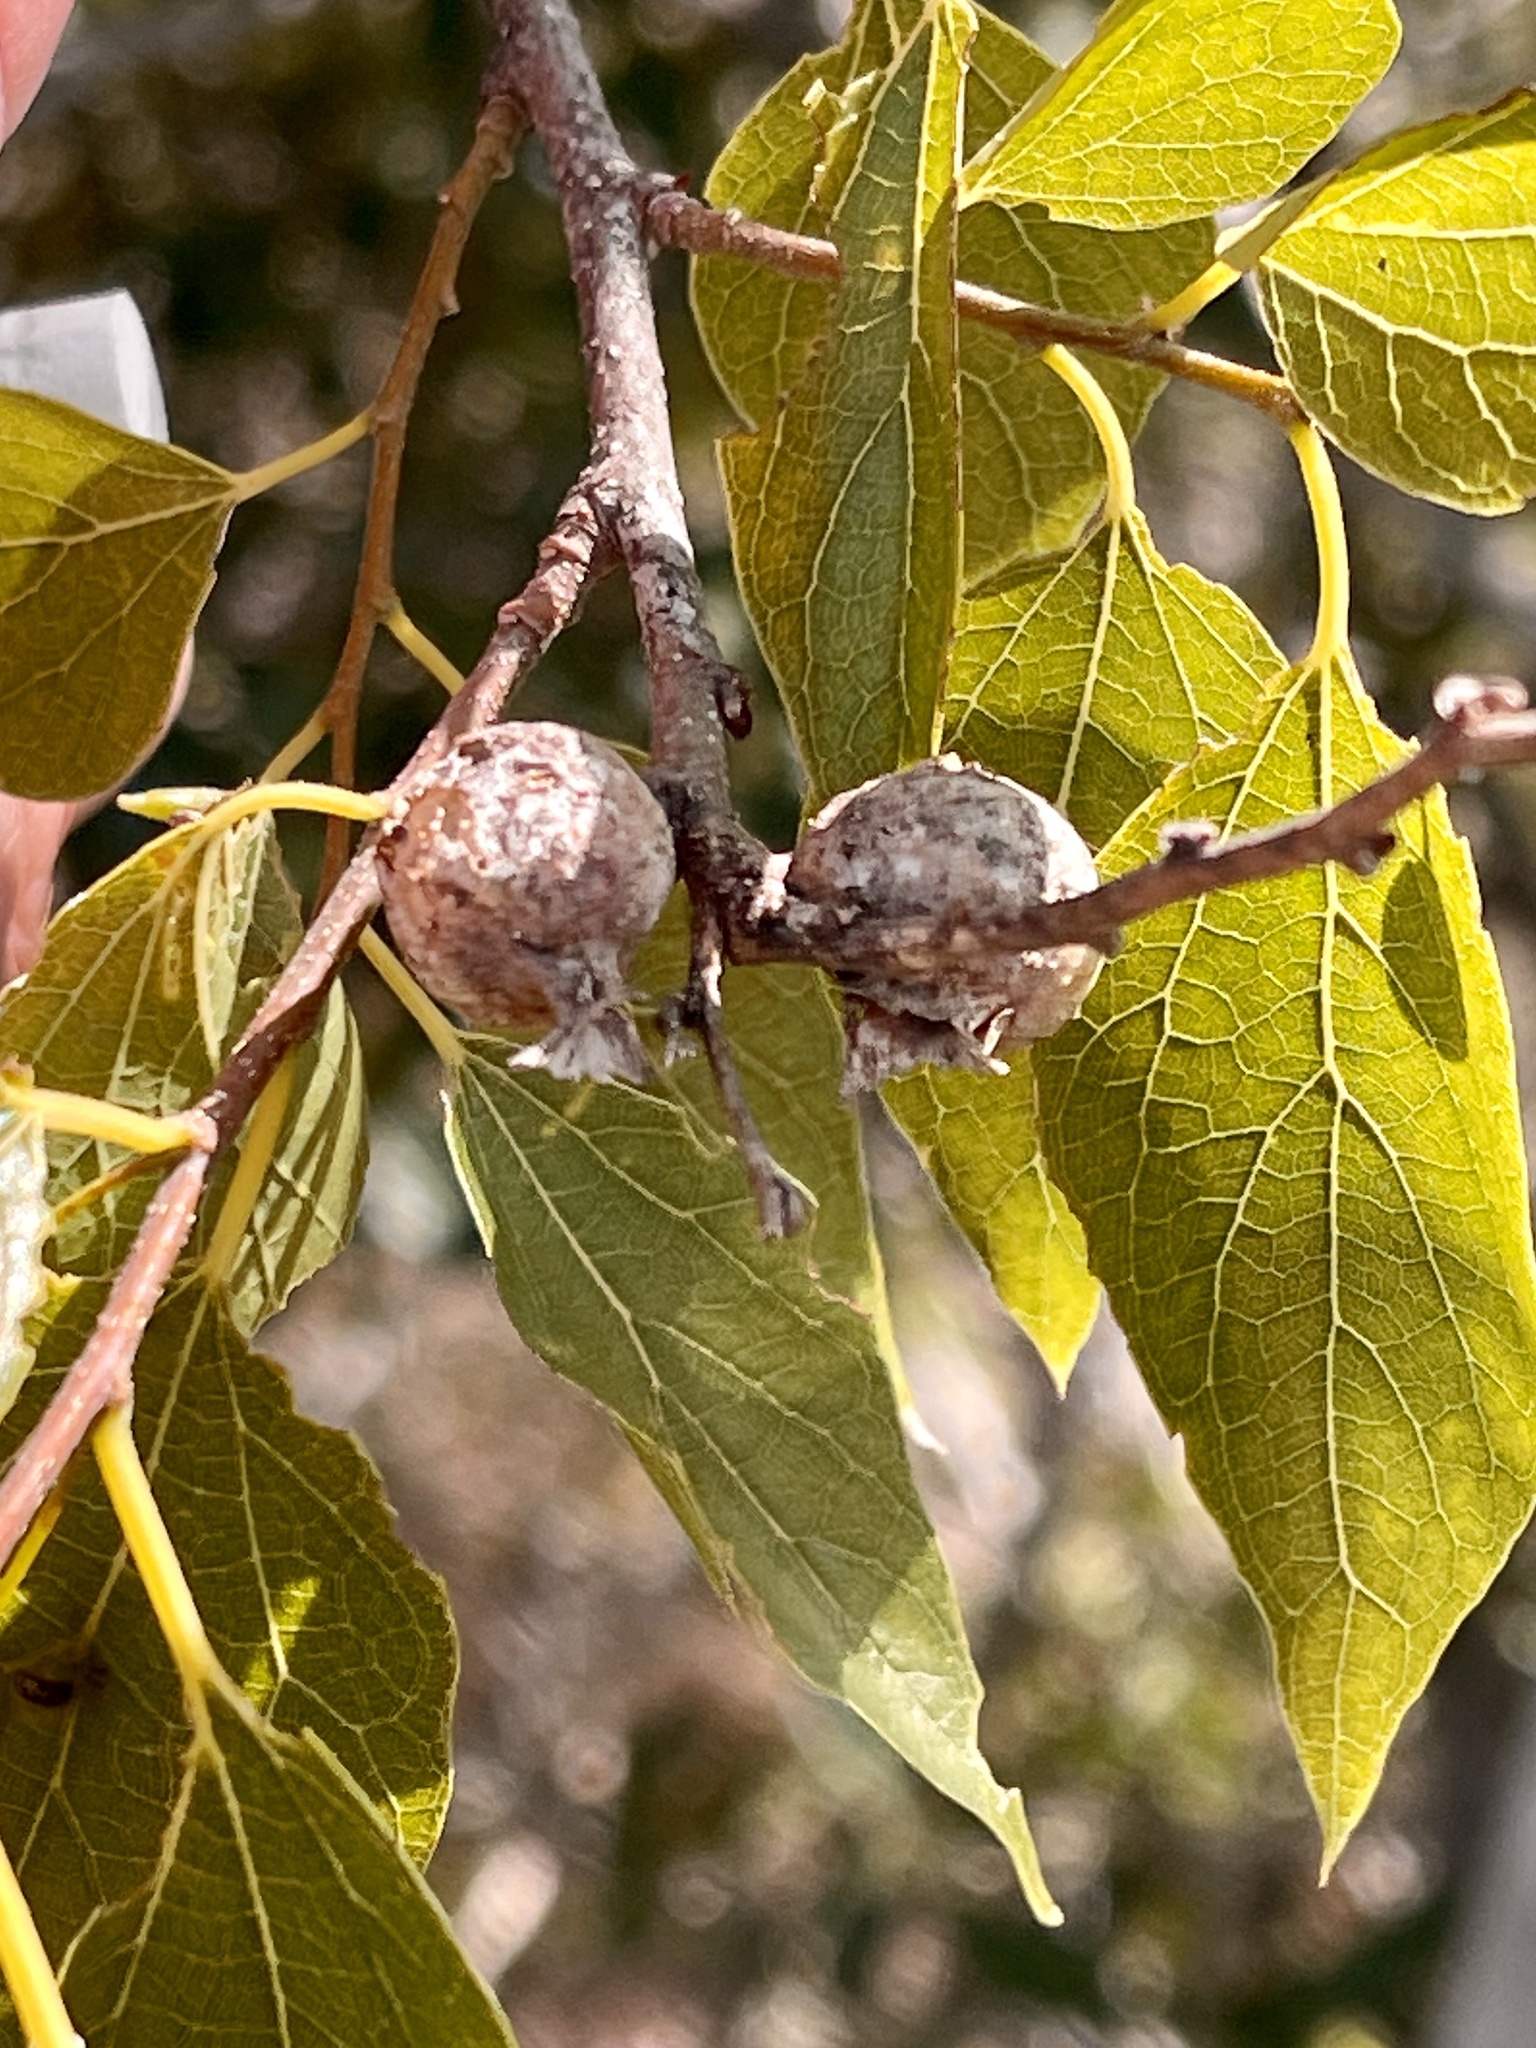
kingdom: Animalia
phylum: Arthropoda
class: Insecta
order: Hemiptera
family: Aphalaridae
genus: Pachypsylla
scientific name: Pachypsylla venusta
